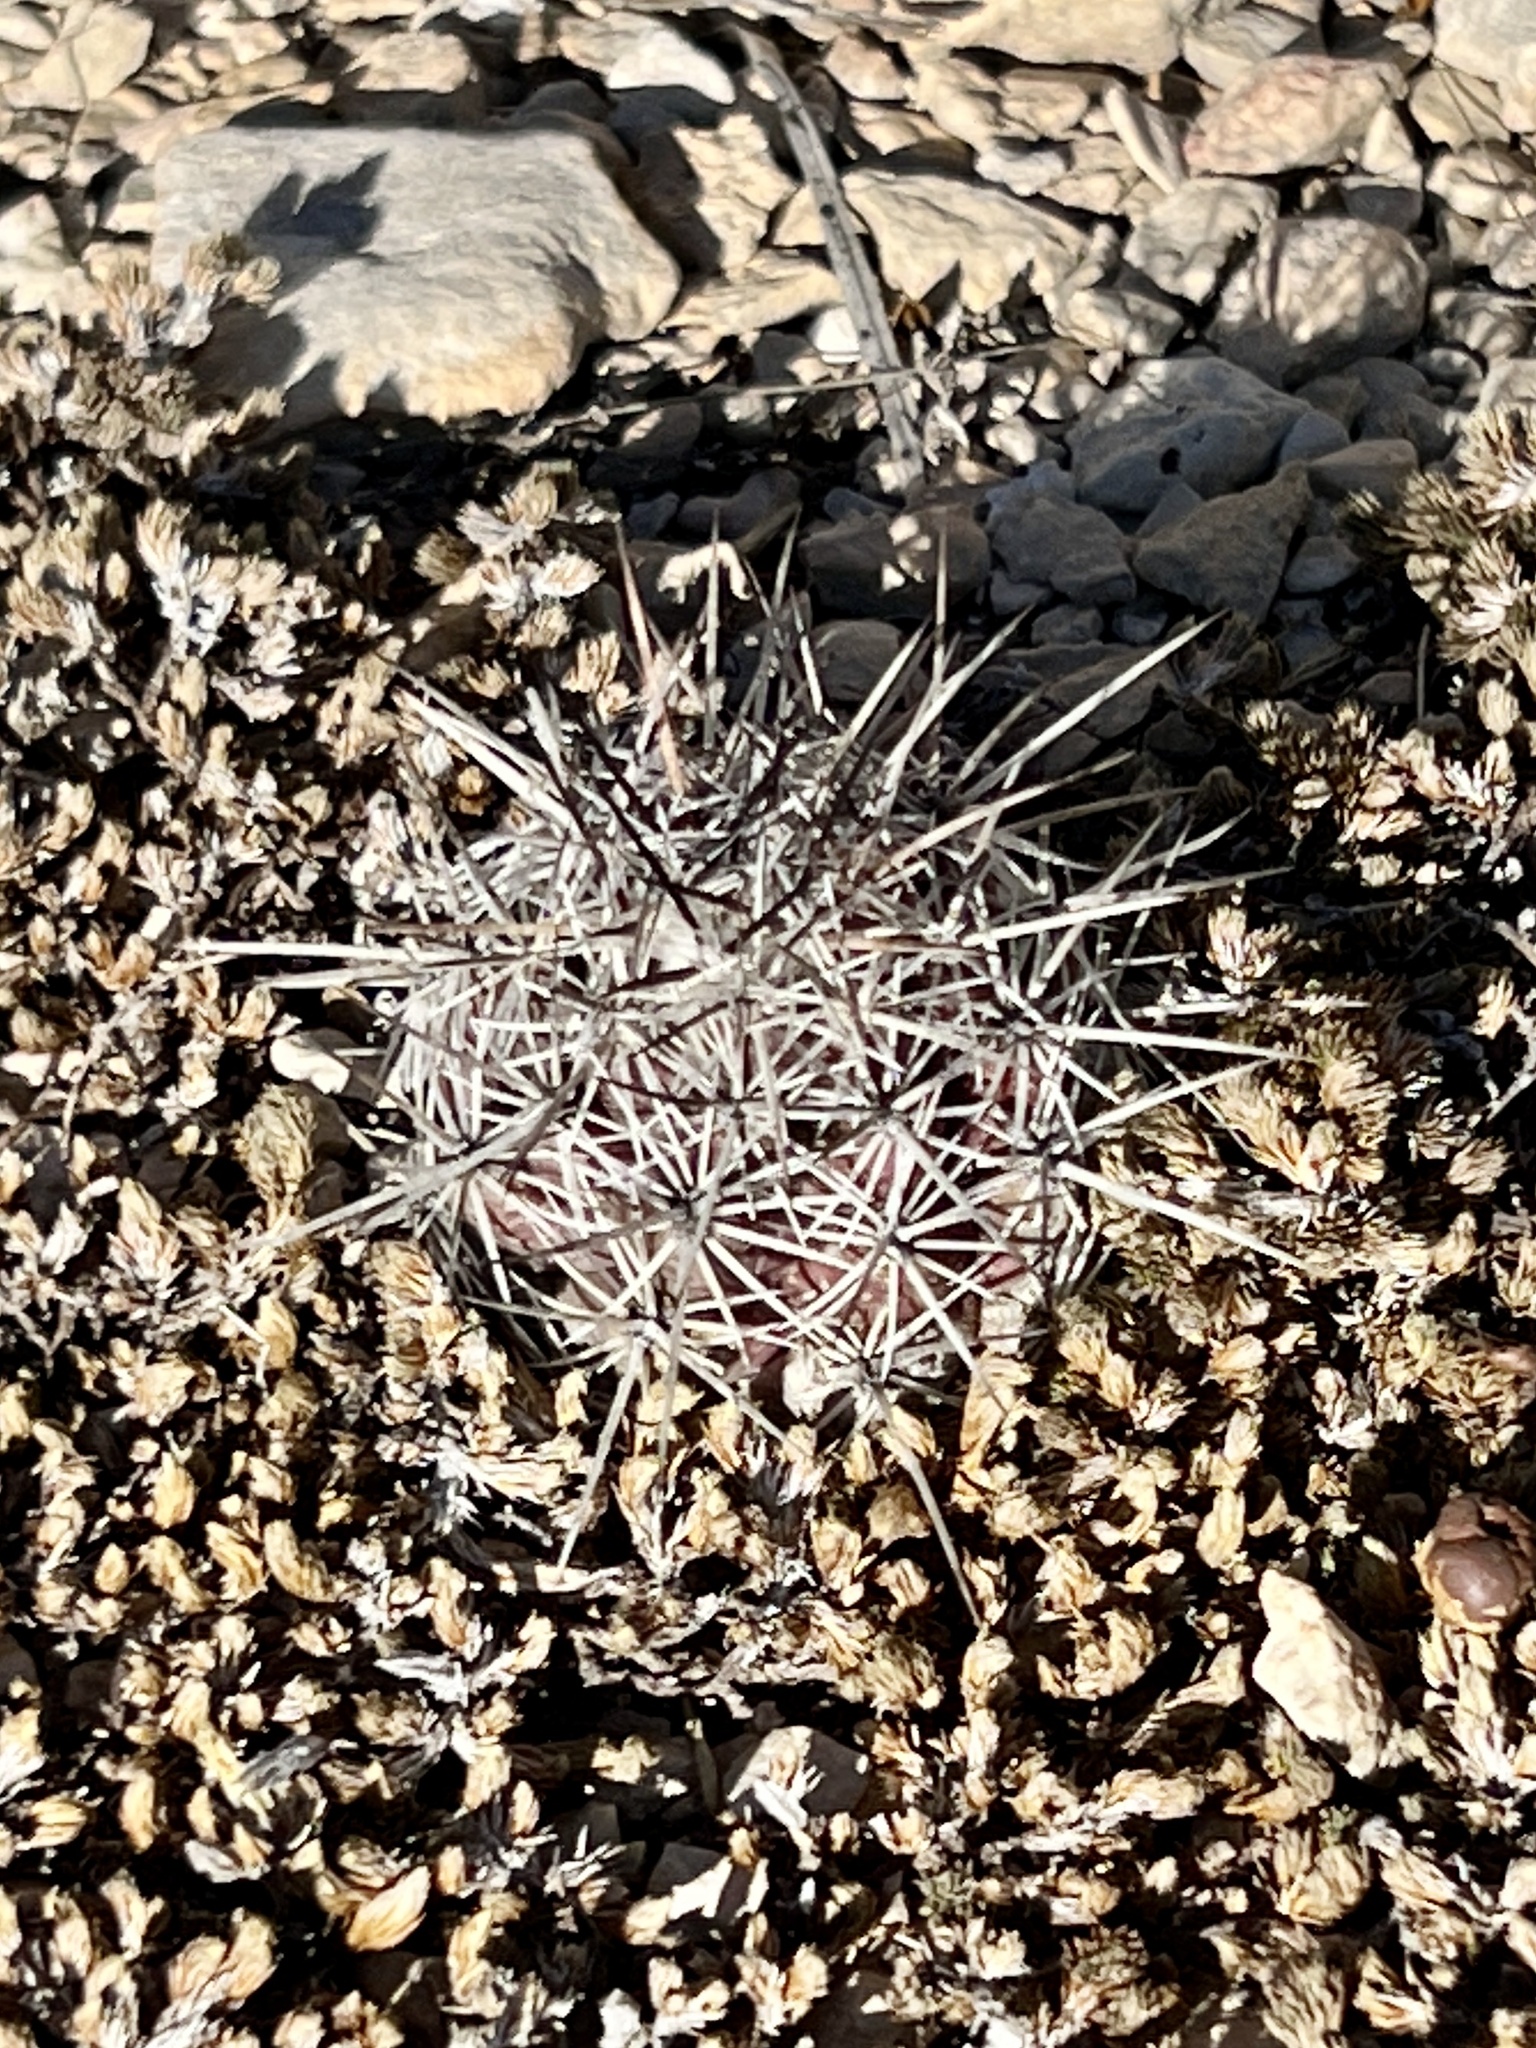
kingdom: Plantae
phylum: Tracheophyta
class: Magnoliopsida
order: Caryophyllales
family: Cactaceae
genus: Cochemiea
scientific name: Cochemiea conoidea
